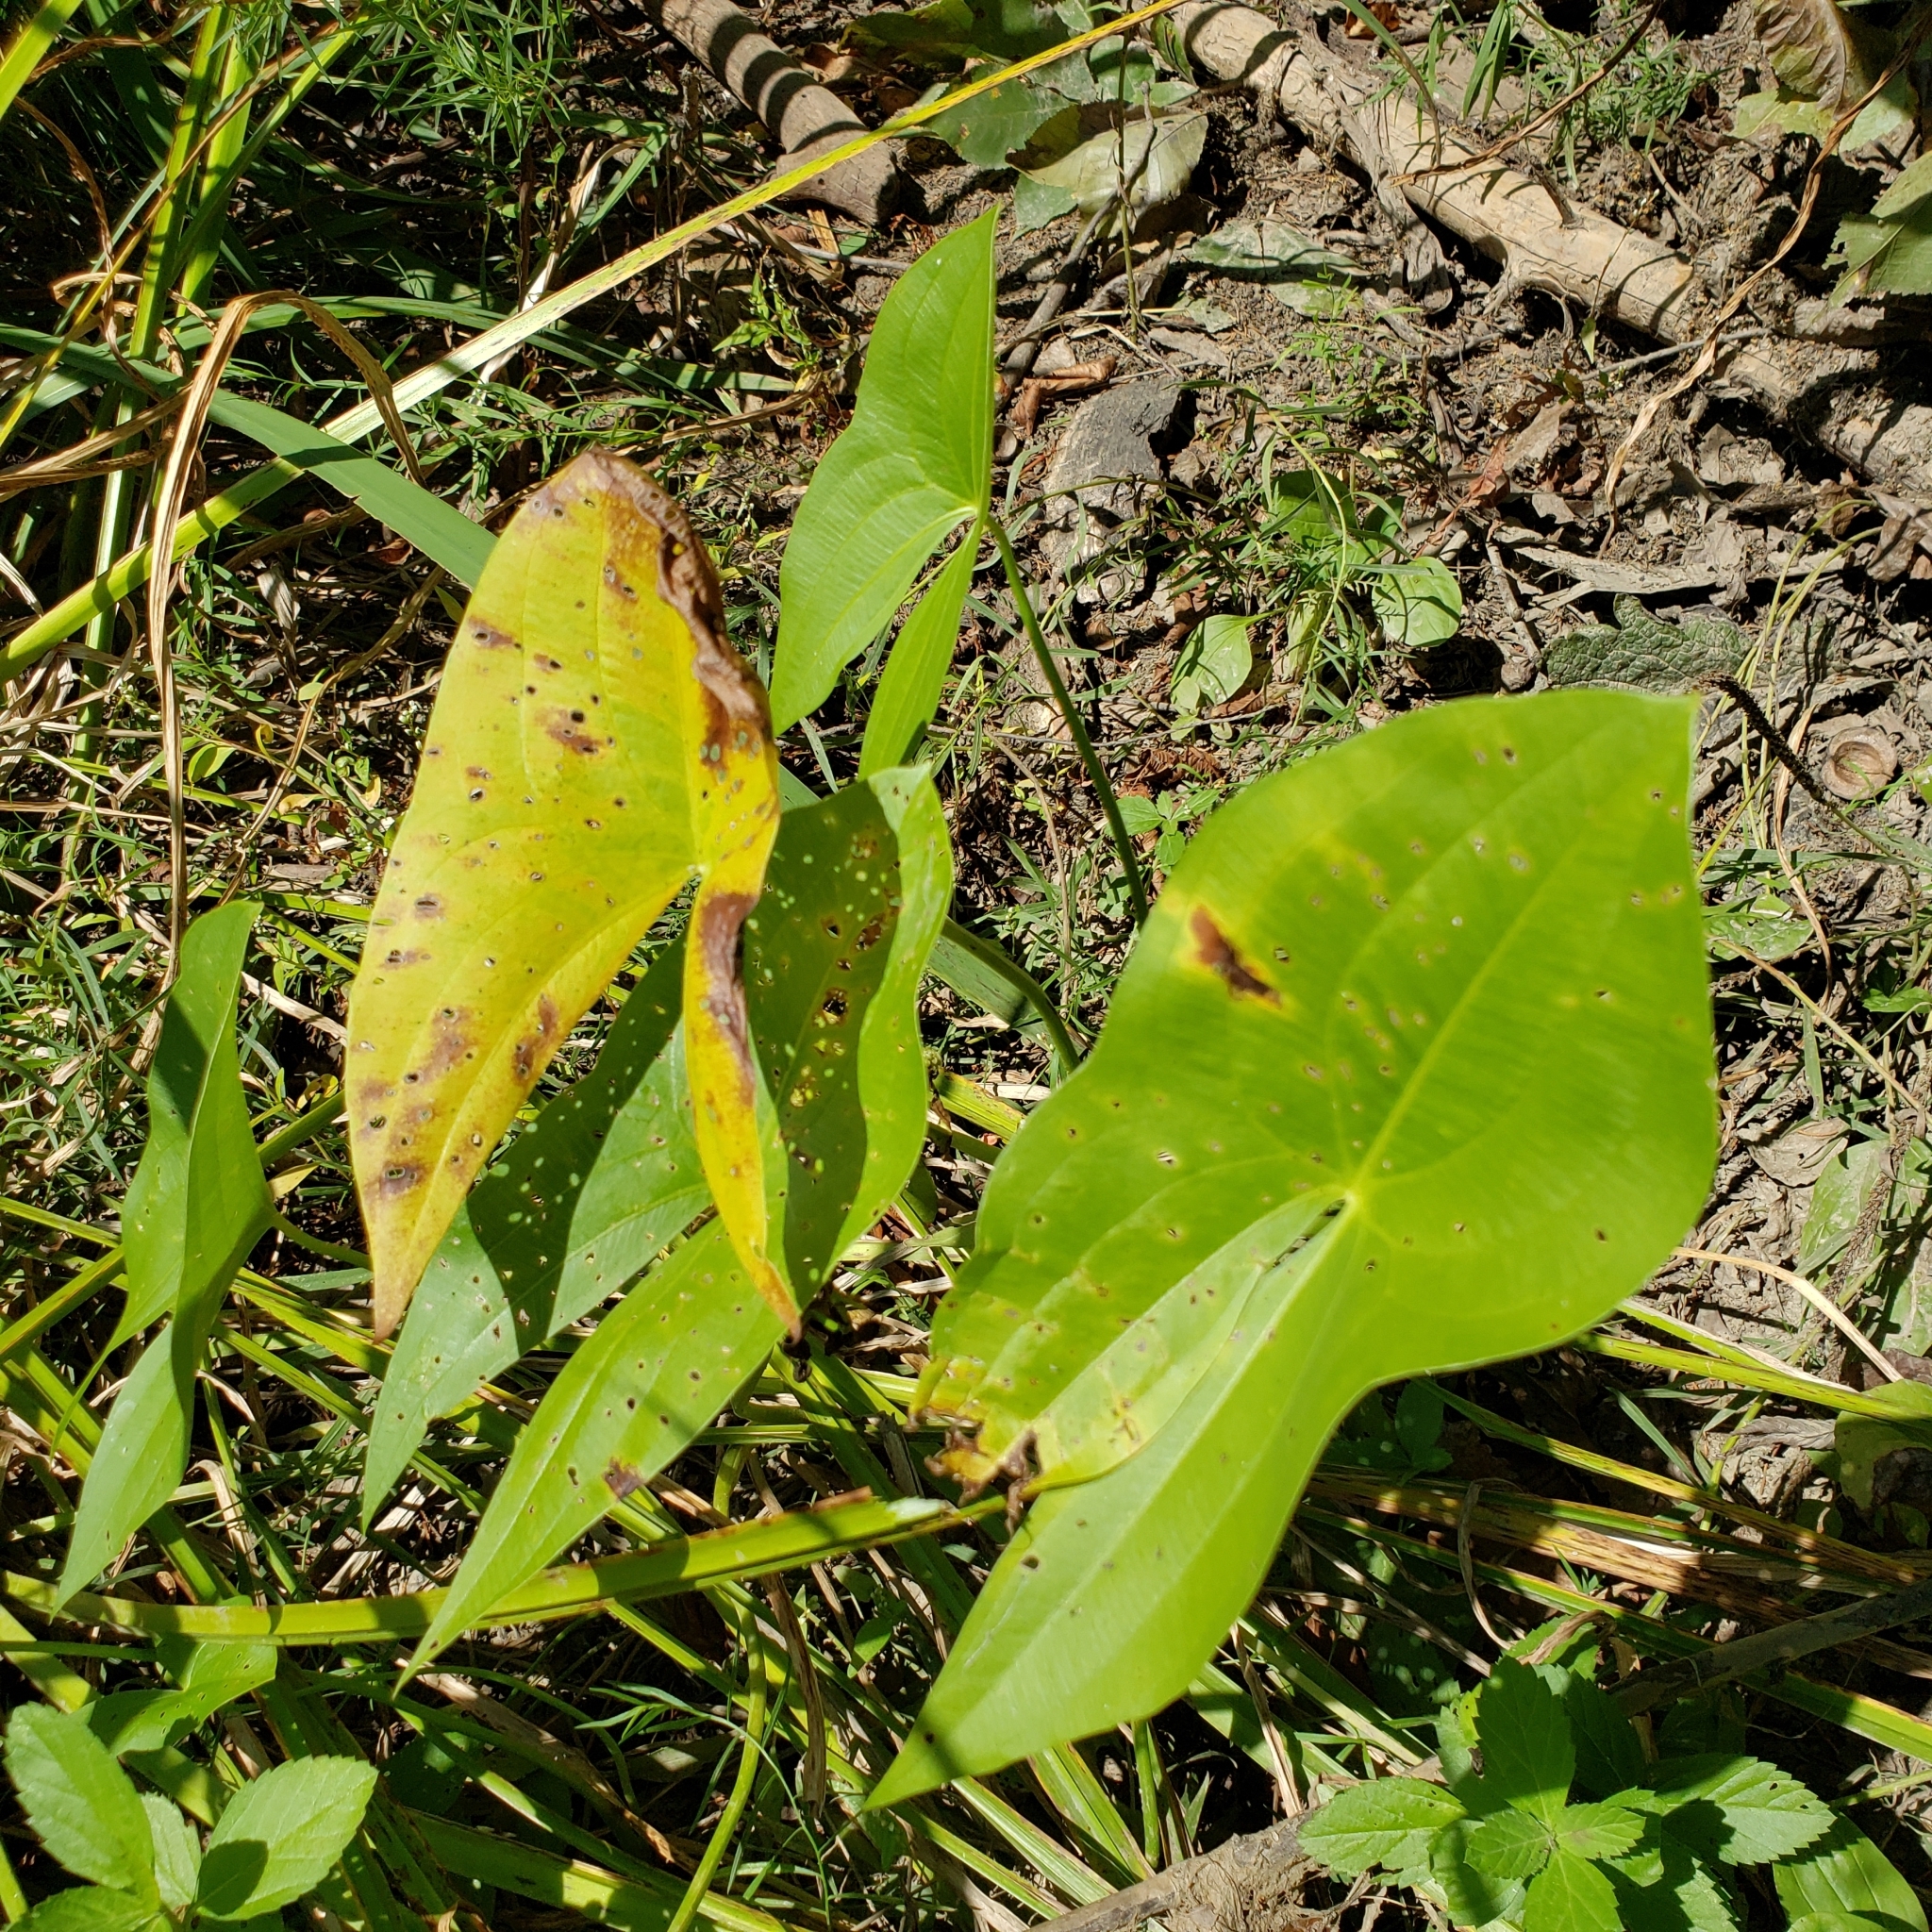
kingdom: Plantae
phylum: Tracheophyta
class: Liliopsida
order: Alismatales
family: Alismataceae
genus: Sagittaria
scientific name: Sagittaria brevirostra
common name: Midwestern arrowhead
